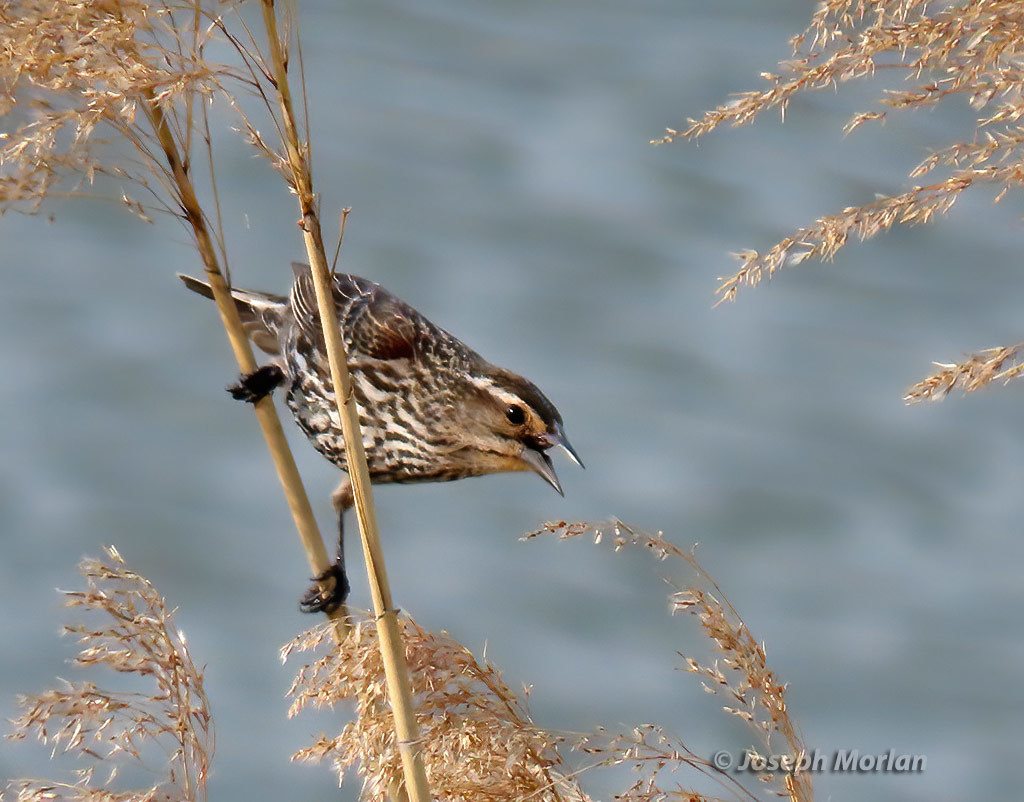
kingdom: Animalia
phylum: Chordata
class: Aves
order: Passeriformes
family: Icteridae
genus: Agelaius
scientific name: Agelaius phoeniceus
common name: Red-winged blackbird
